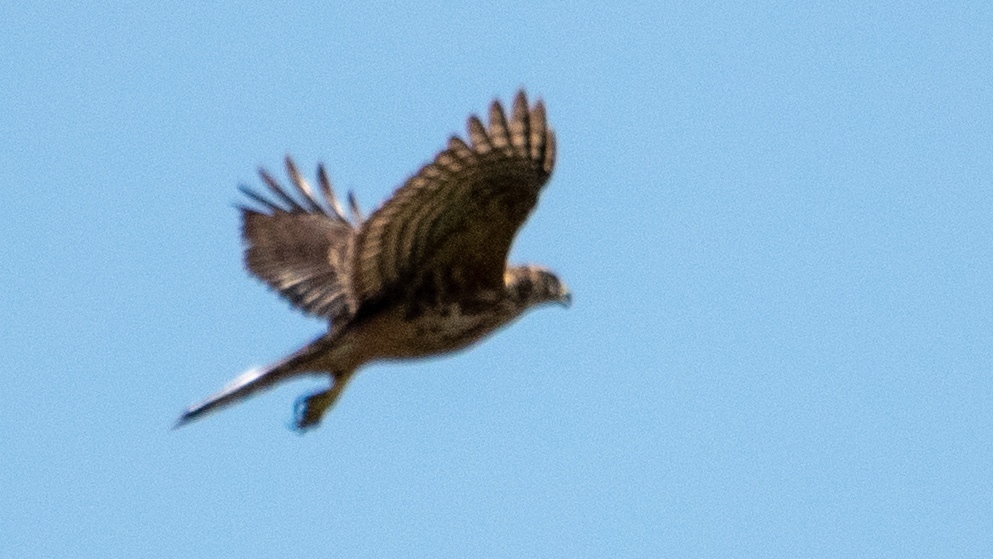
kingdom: Animalia
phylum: Chordata
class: Aves
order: Accipitriformes
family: Accipitridae
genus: Accipiter
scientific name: Accipiter gentilis
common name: Northern goshawk
